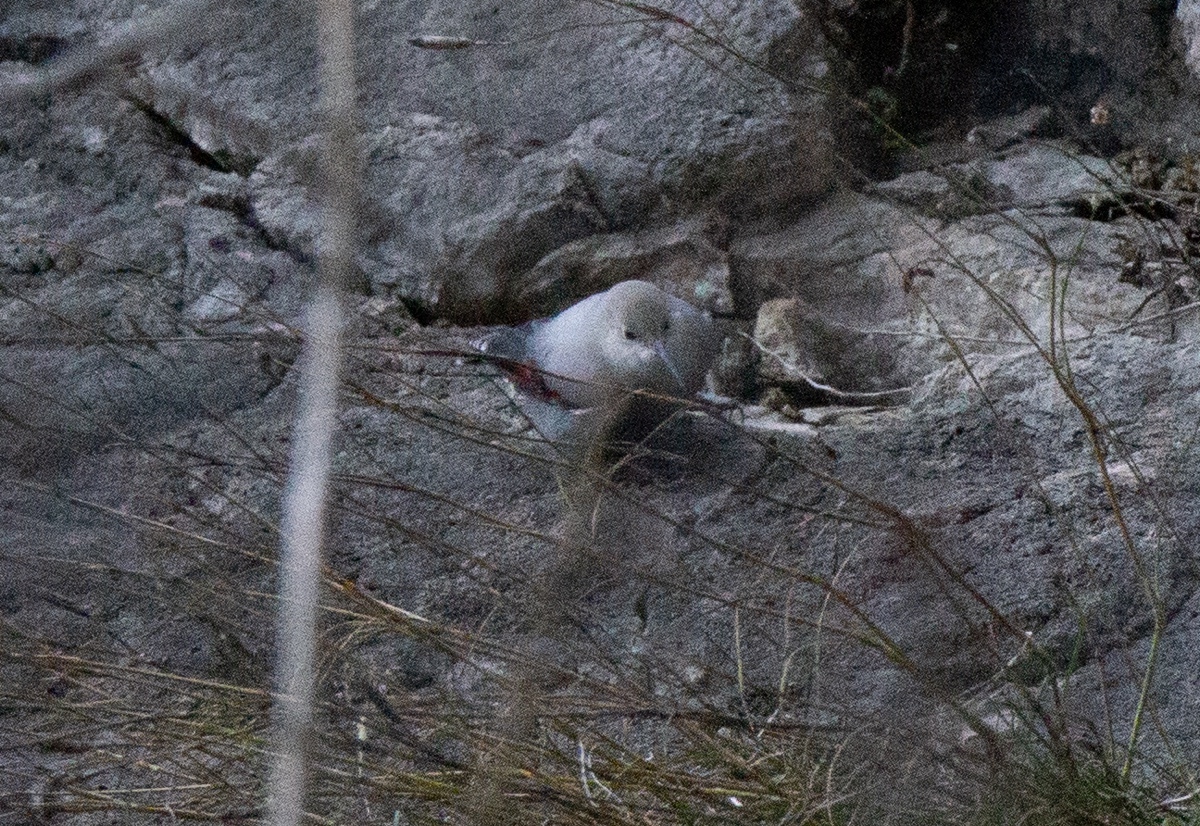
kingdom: Animalia
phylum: Chordata
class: Aves
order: Passeriformes
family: Tichodromidae
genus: Tichodroma
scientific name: Tichodroma muraria
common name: Wallcreeper
